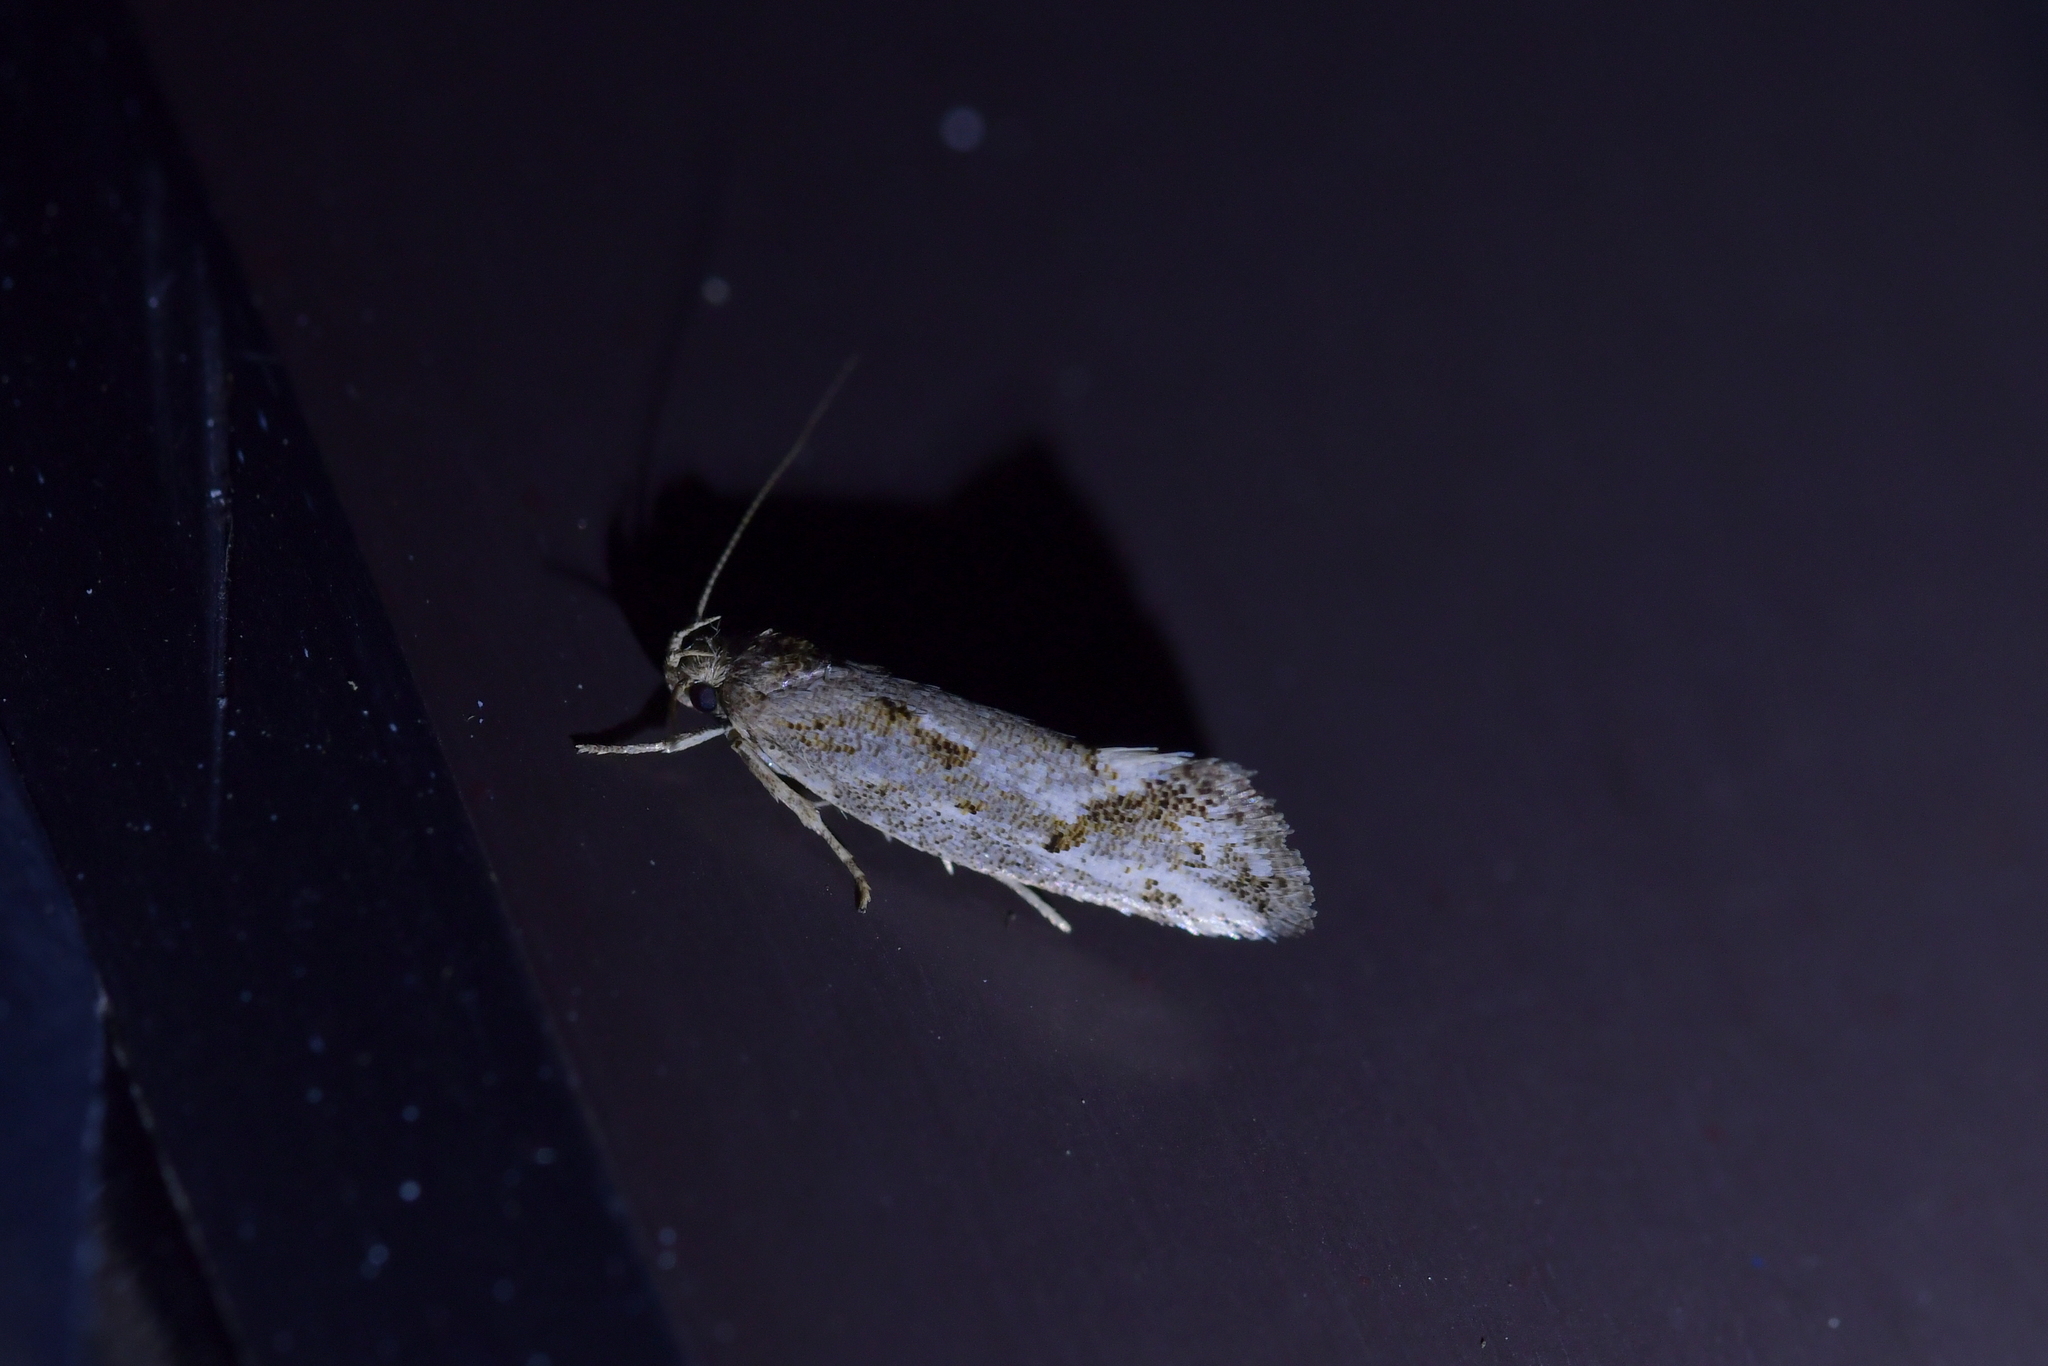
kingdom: Animalia
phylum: Arthropoda
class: Insecta
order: Lepidoptera
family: Oecophoridae
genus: Tingena
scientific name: Tingena hemimochla
